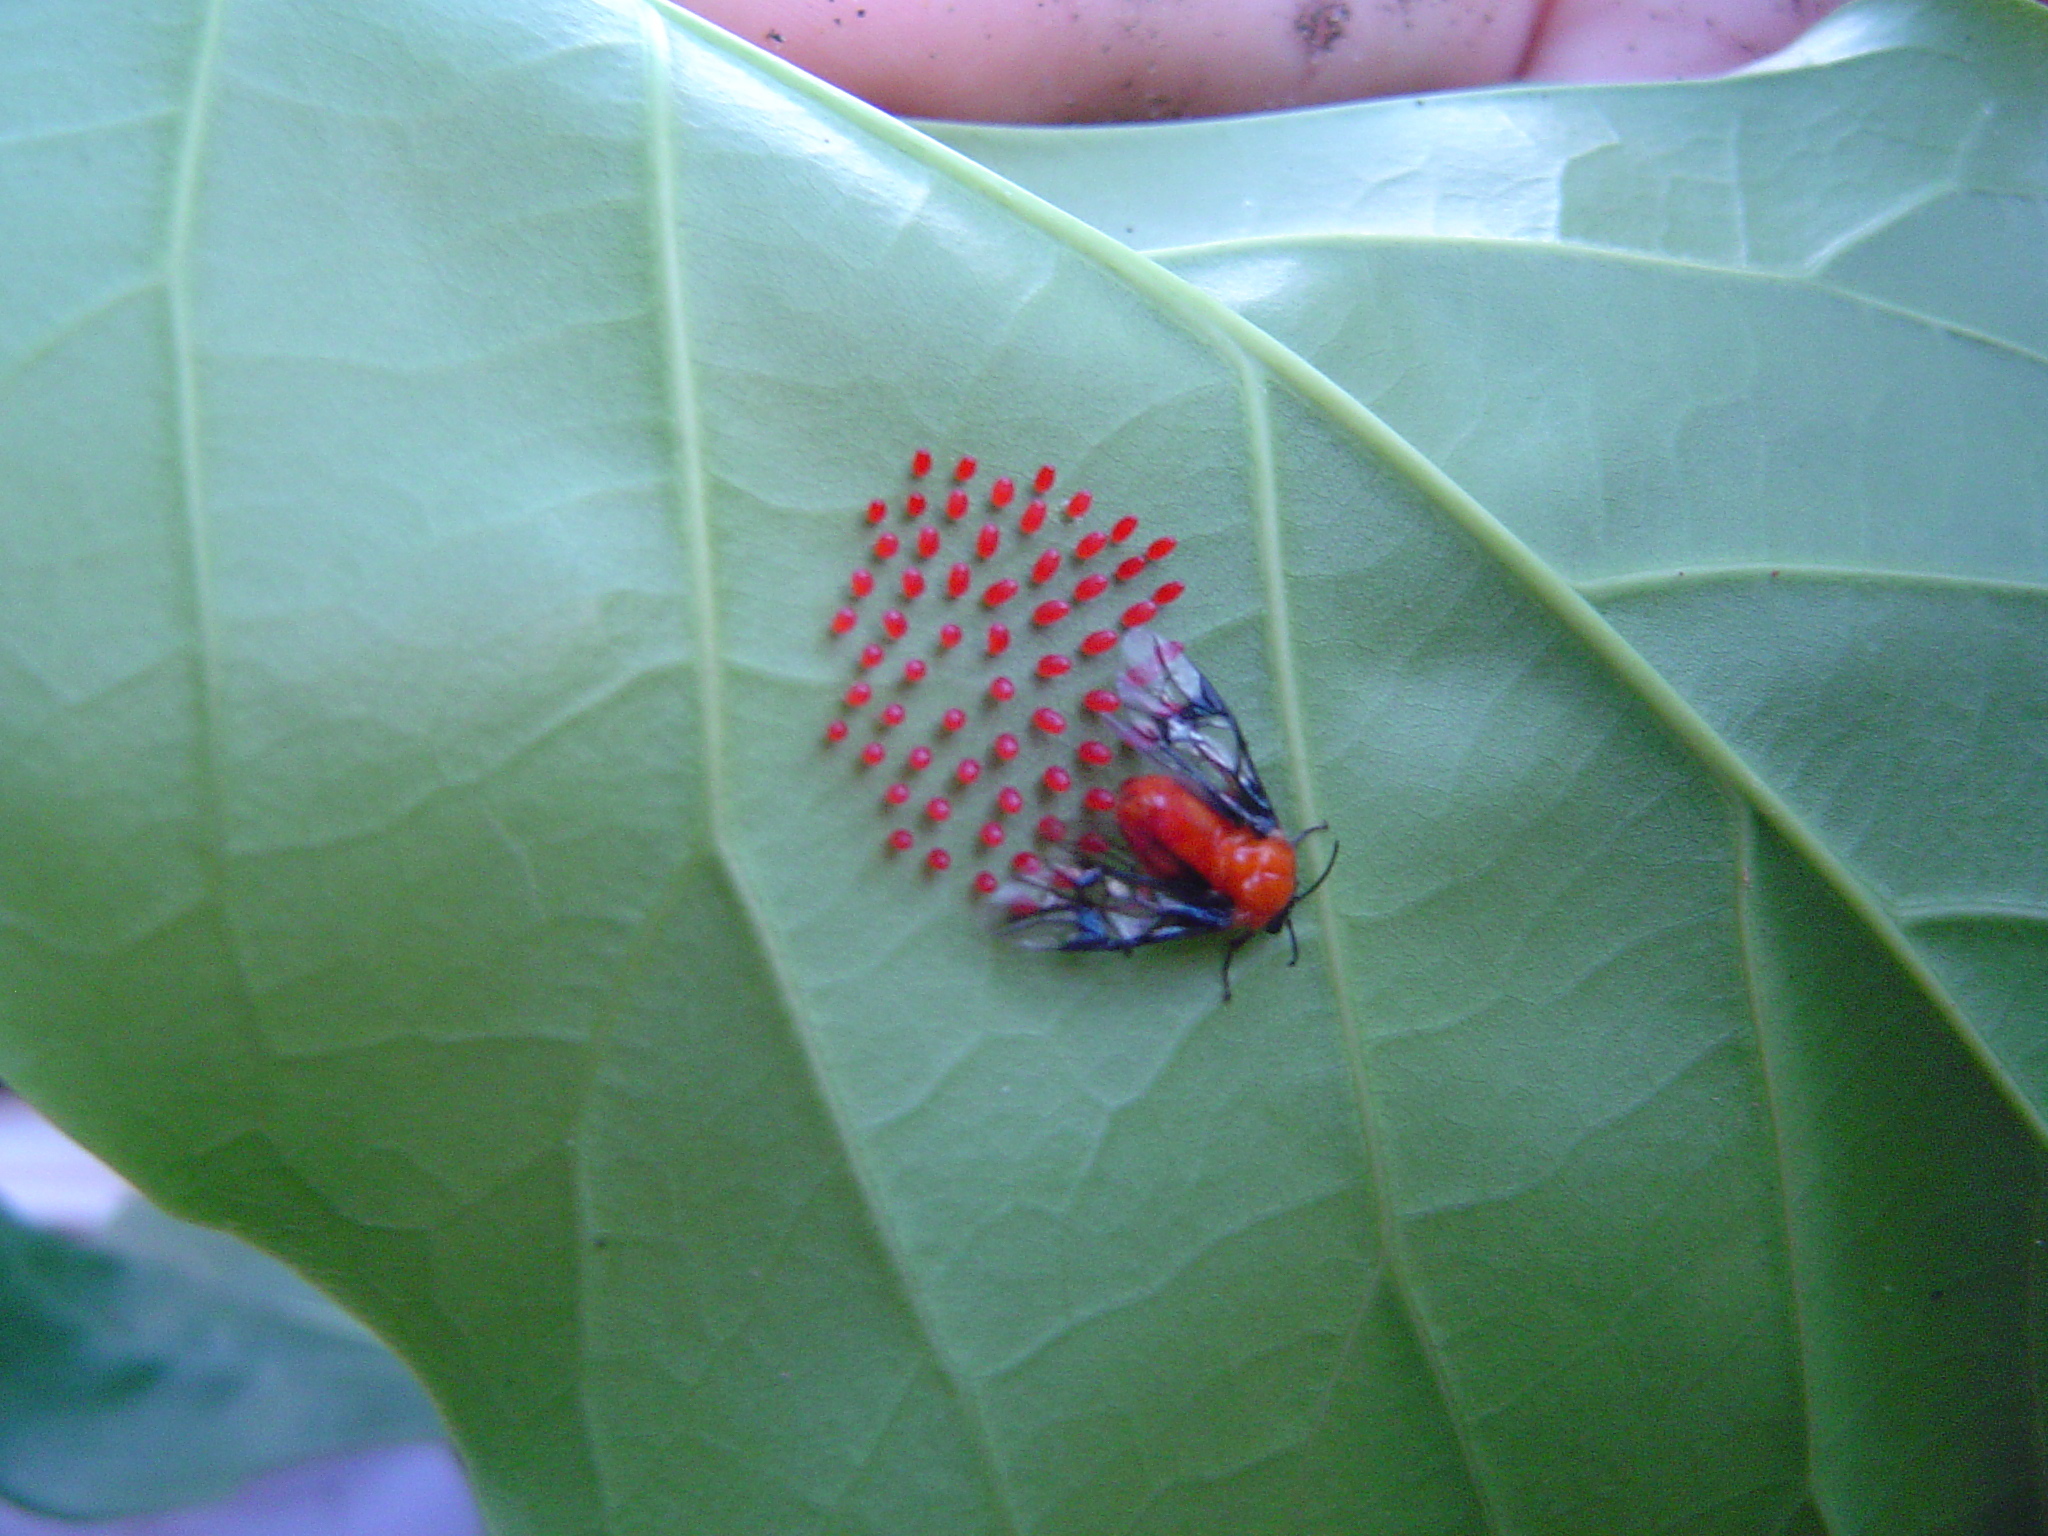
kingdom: Animalia
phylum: Arthropoda
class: Insecta
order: Hymenoptera
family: Argidae
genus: Sericoceros
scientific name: Sericoceros
